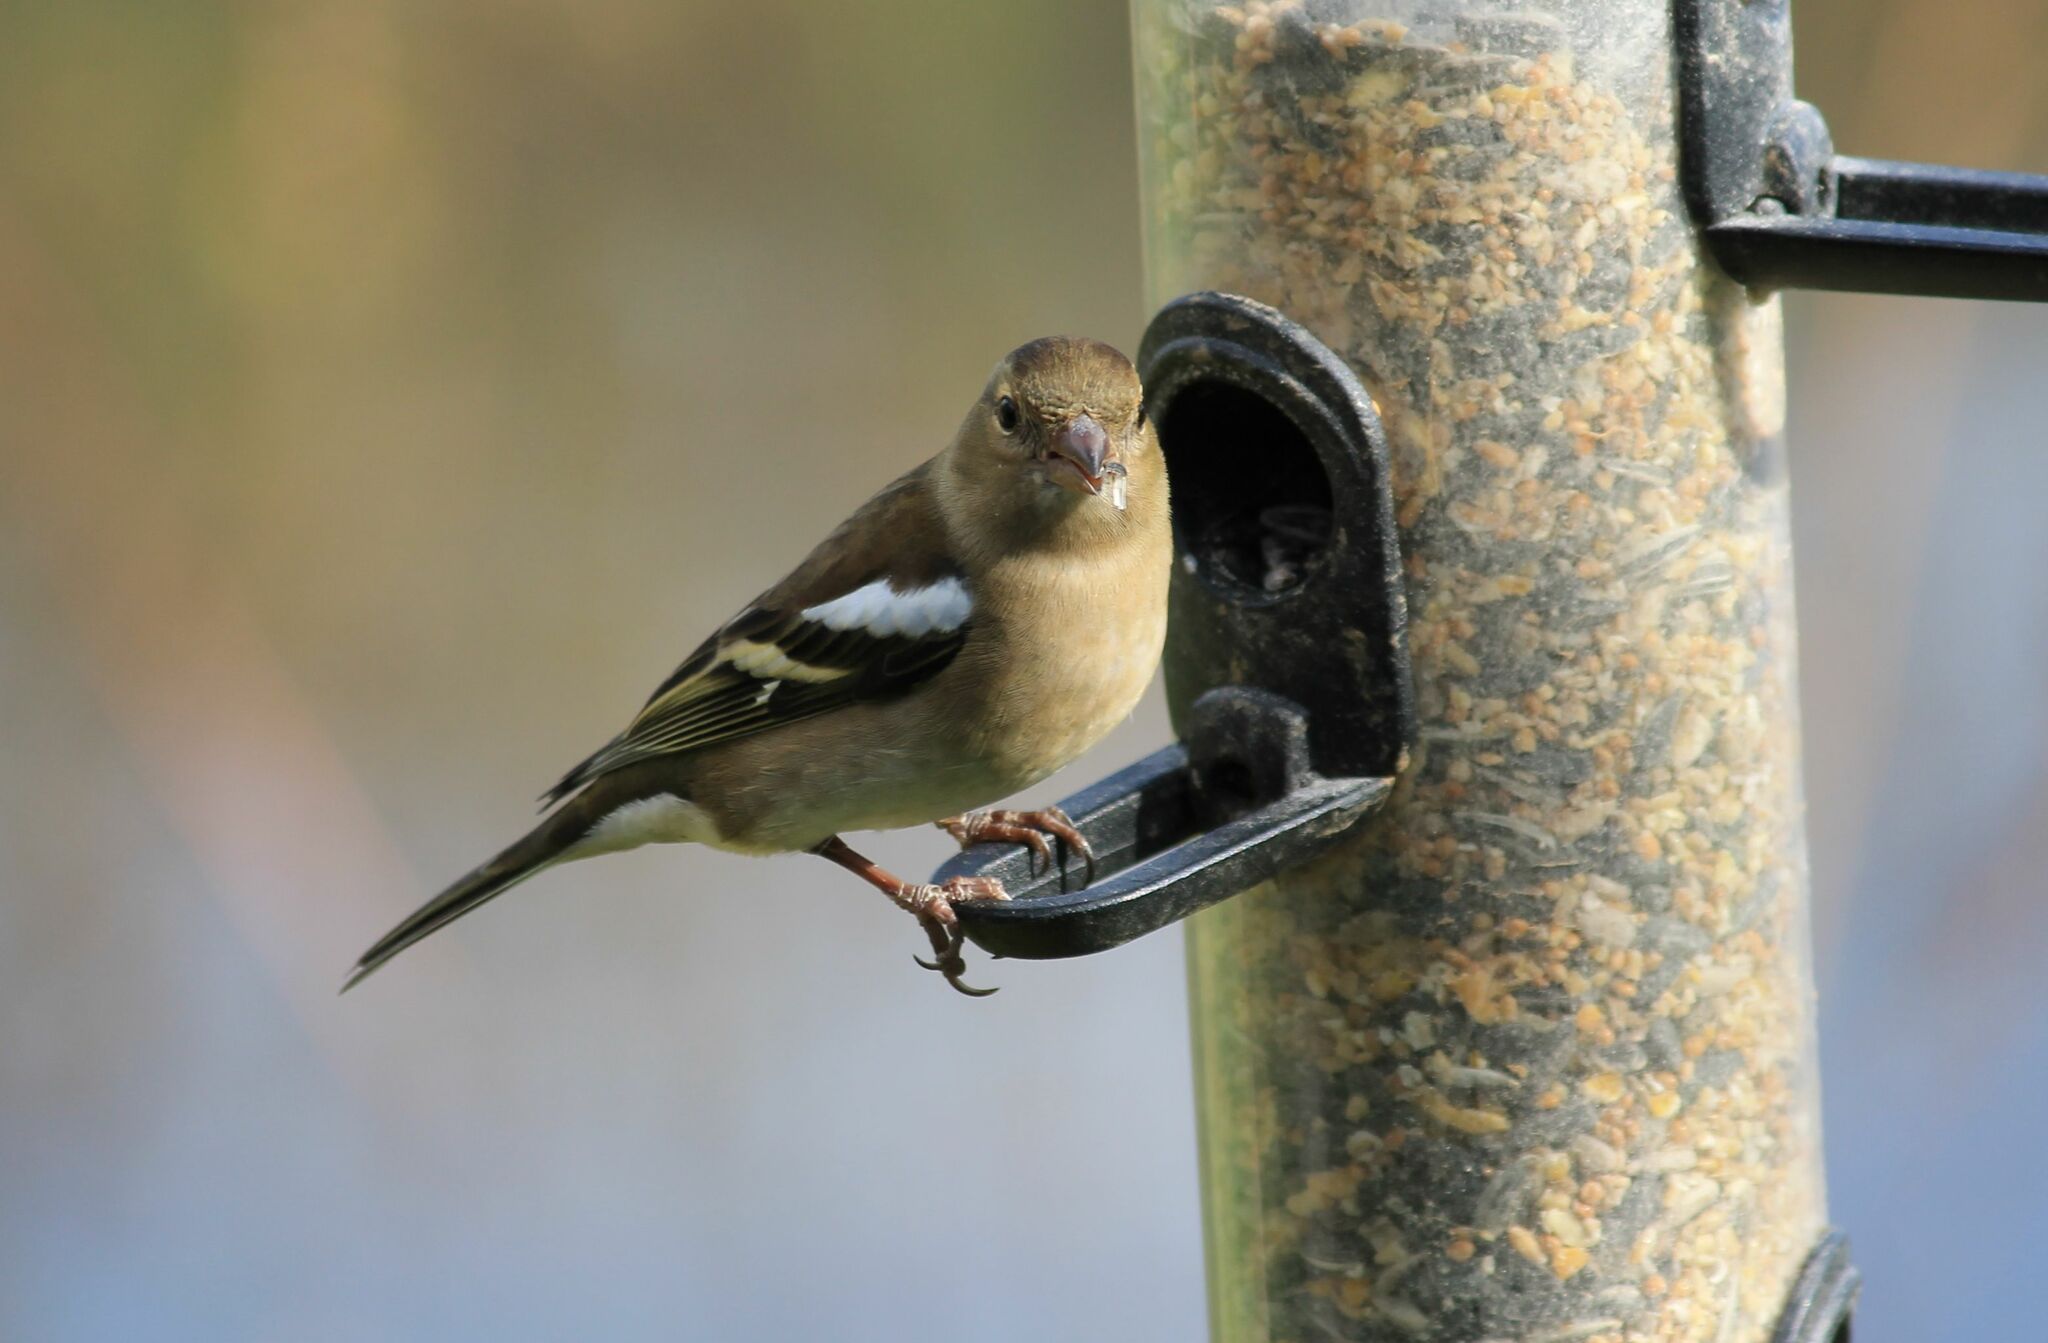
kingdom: Animalia
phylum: Chordata
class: Aves
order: Passeriformes
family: Fringillidae
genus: Fringilla
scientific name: Fringilla coelebs
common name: Common chaffinch
